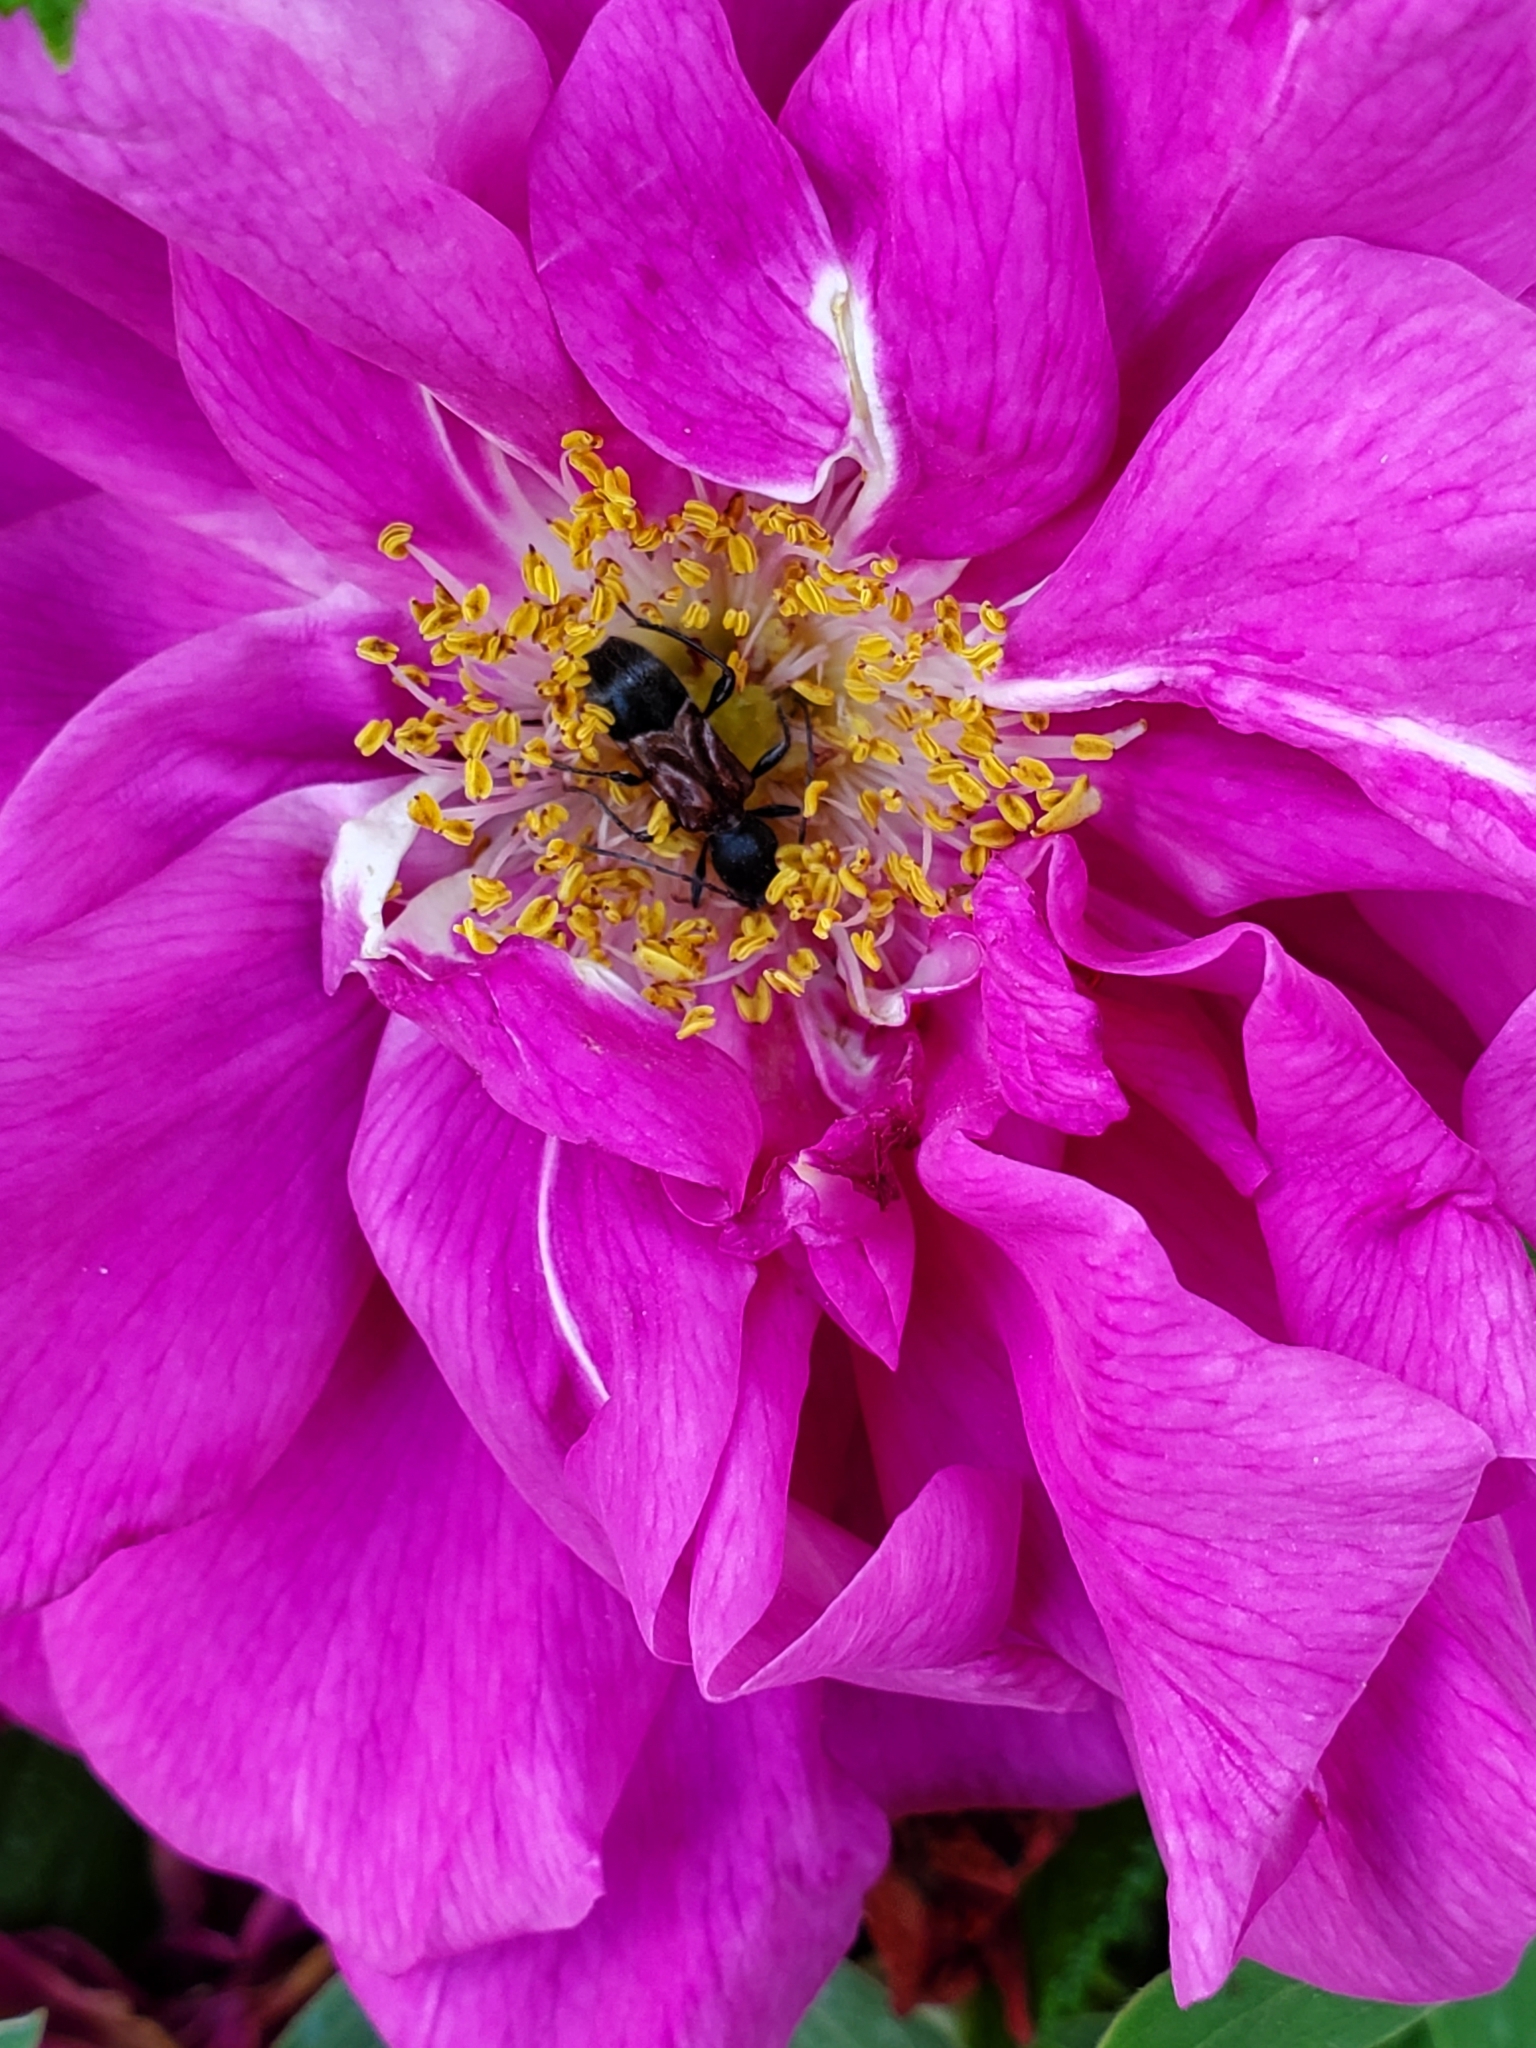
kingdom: Animalia
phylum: Arthropoda
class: Insecta
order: Coleoptera
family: Cerambycidae
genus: Cyrtophorus
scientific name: Cyrtophorus verrucosus
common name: Ant-like longhorn beetle
